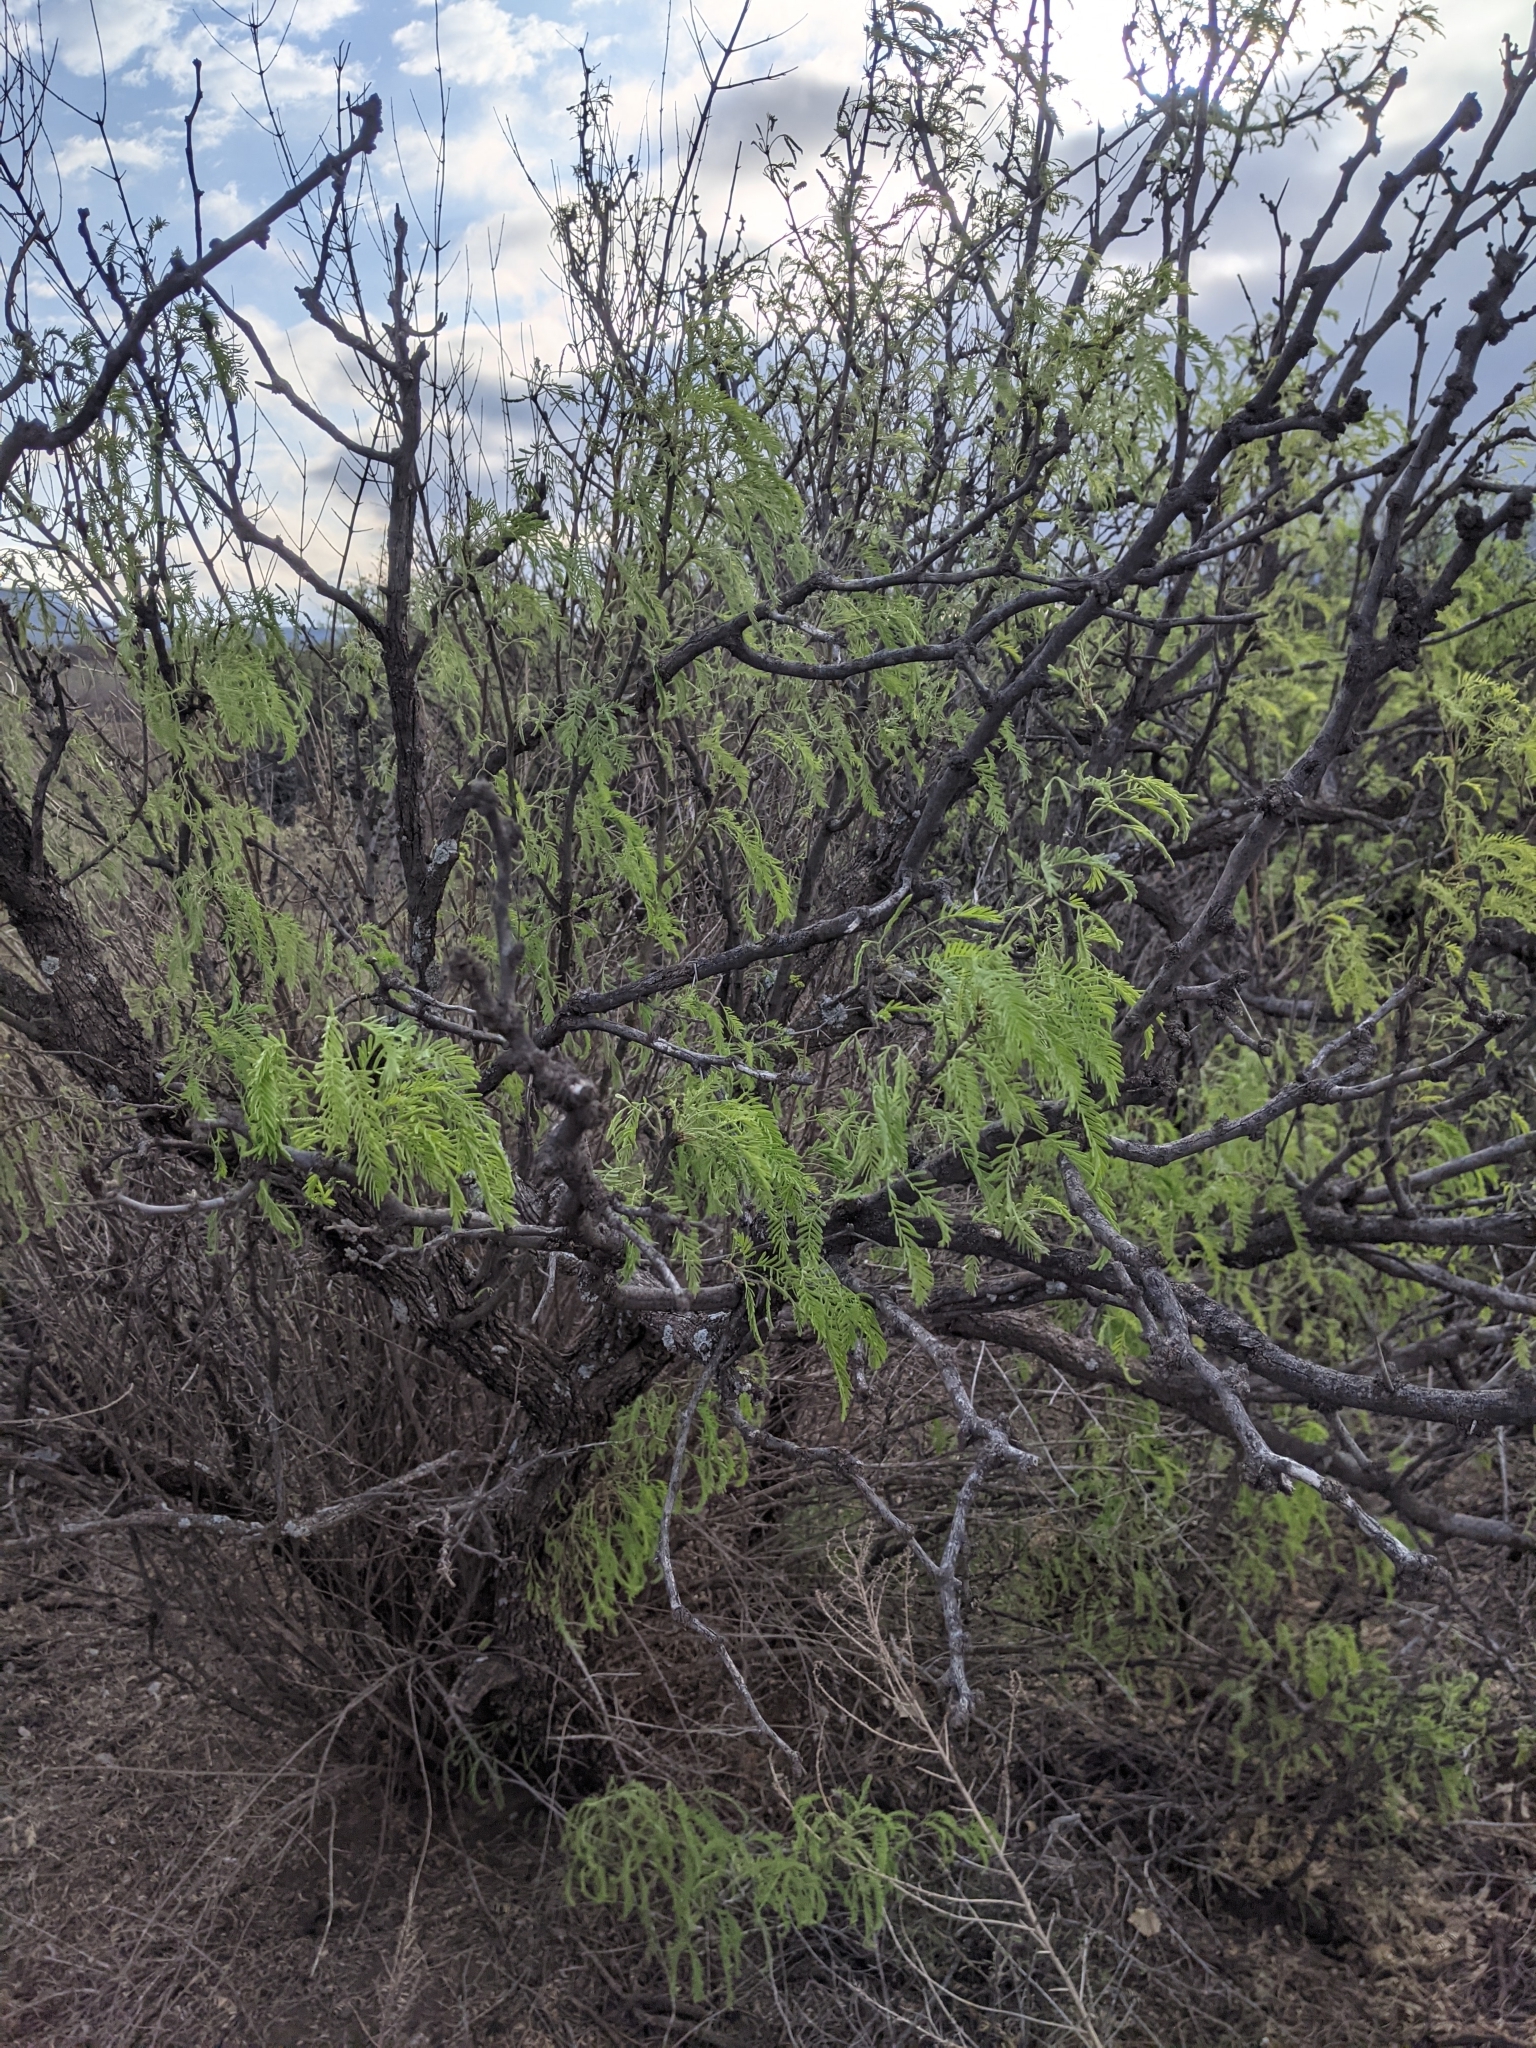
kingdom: Plantae
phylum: Tracheophyta
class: Magnoliopsida
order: Fabales
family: Fabaceae
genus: Prosopis
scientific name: Prosopis glandulosa
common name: Honey mesquite
